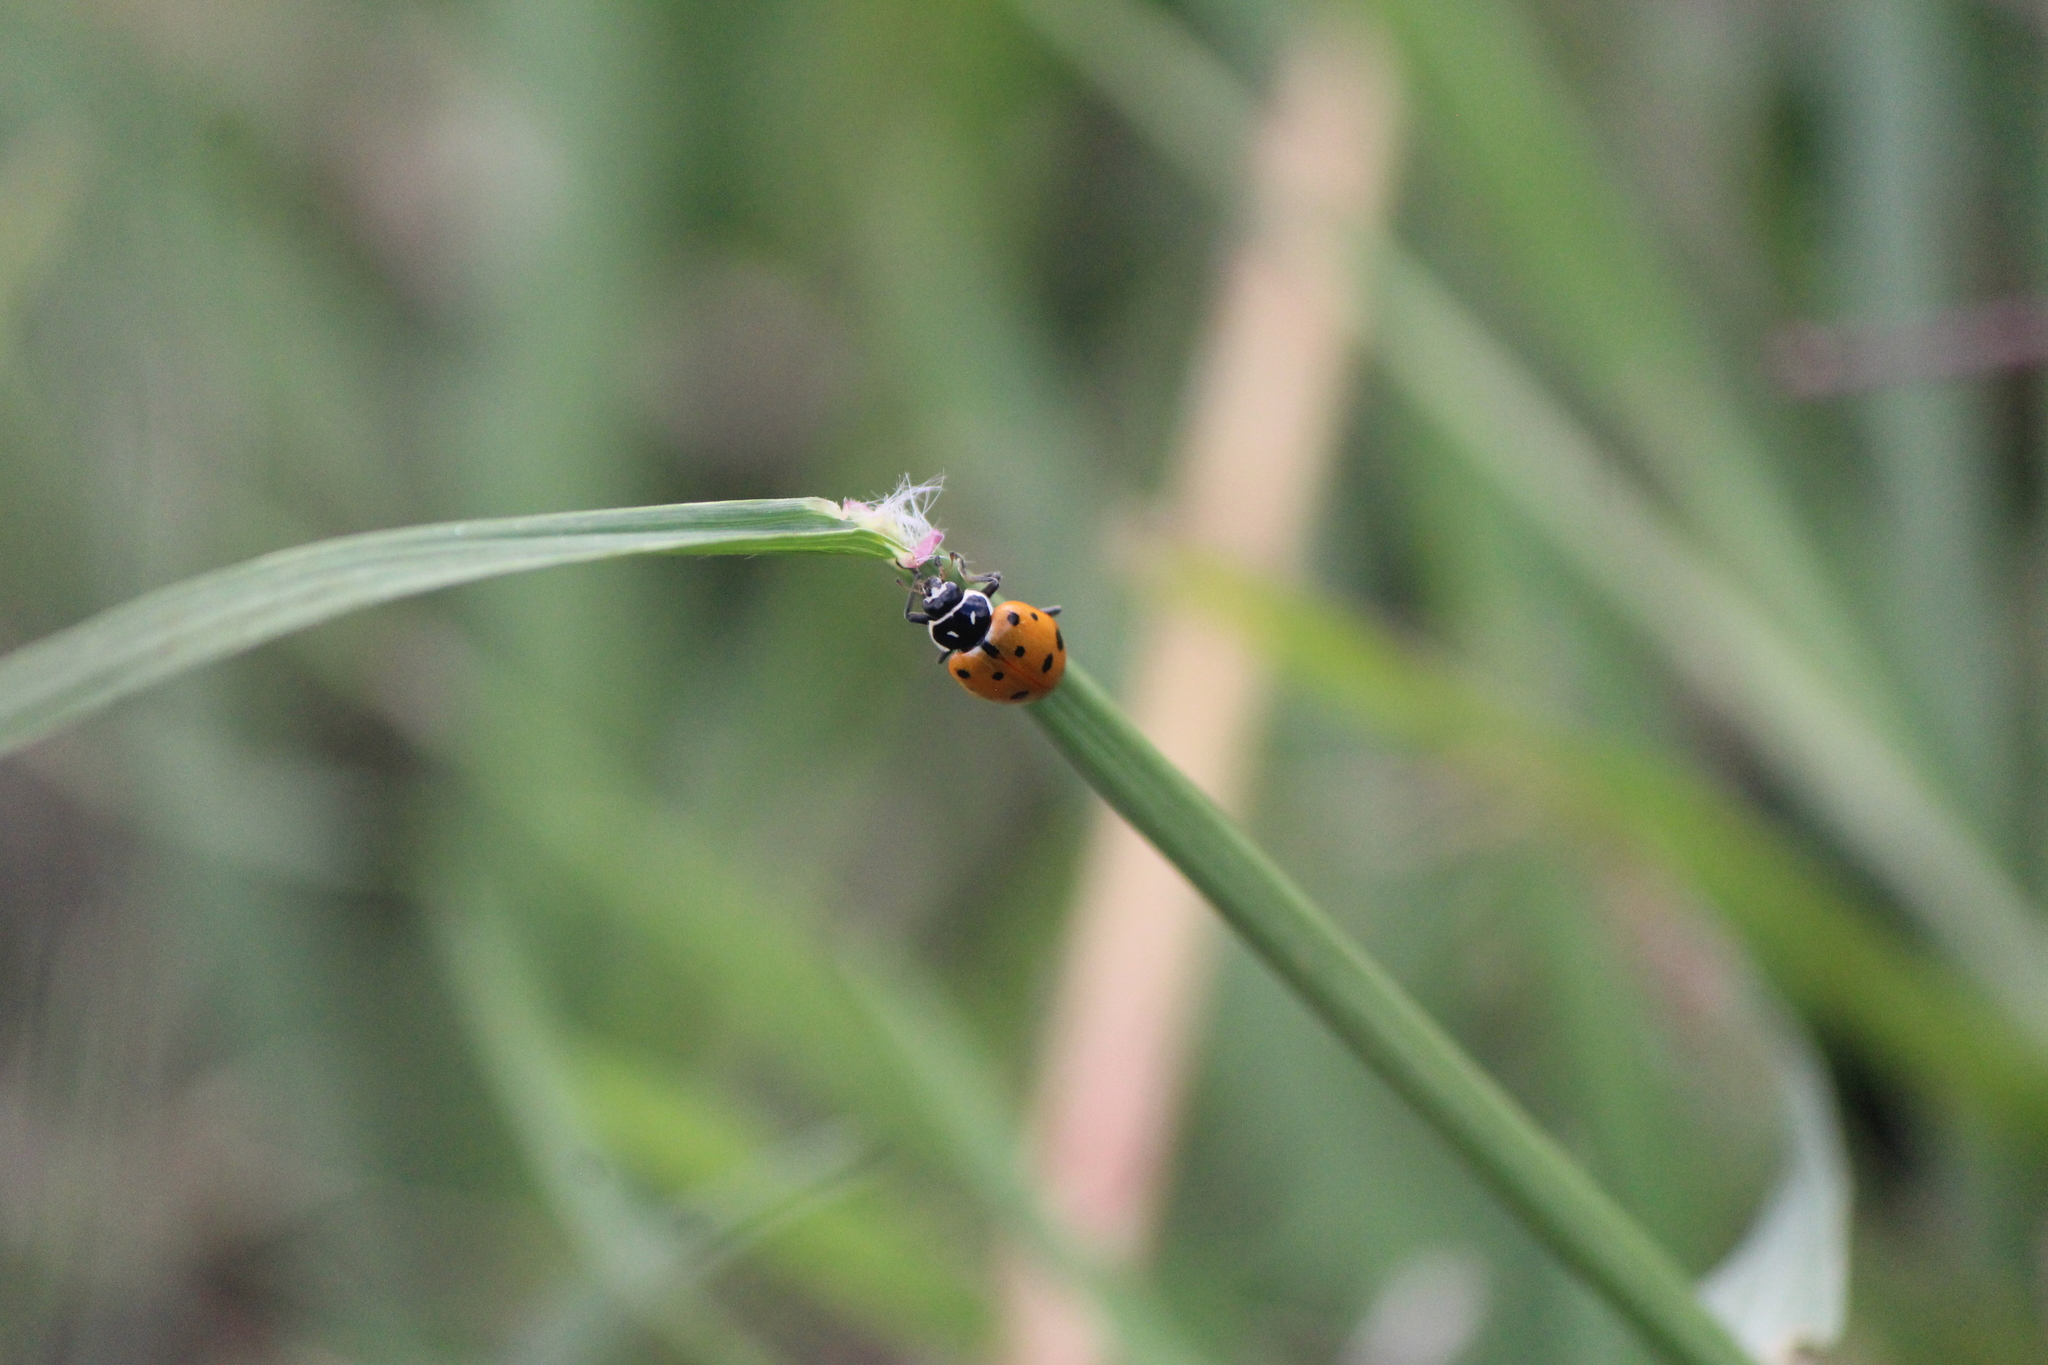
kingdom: Animalia
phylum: Arthropoda
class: Insecta
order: Coleoptera
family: Coccinellidae
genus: Hippodamia
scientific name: Hippodamia convergens
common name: Convergent lady beetle
